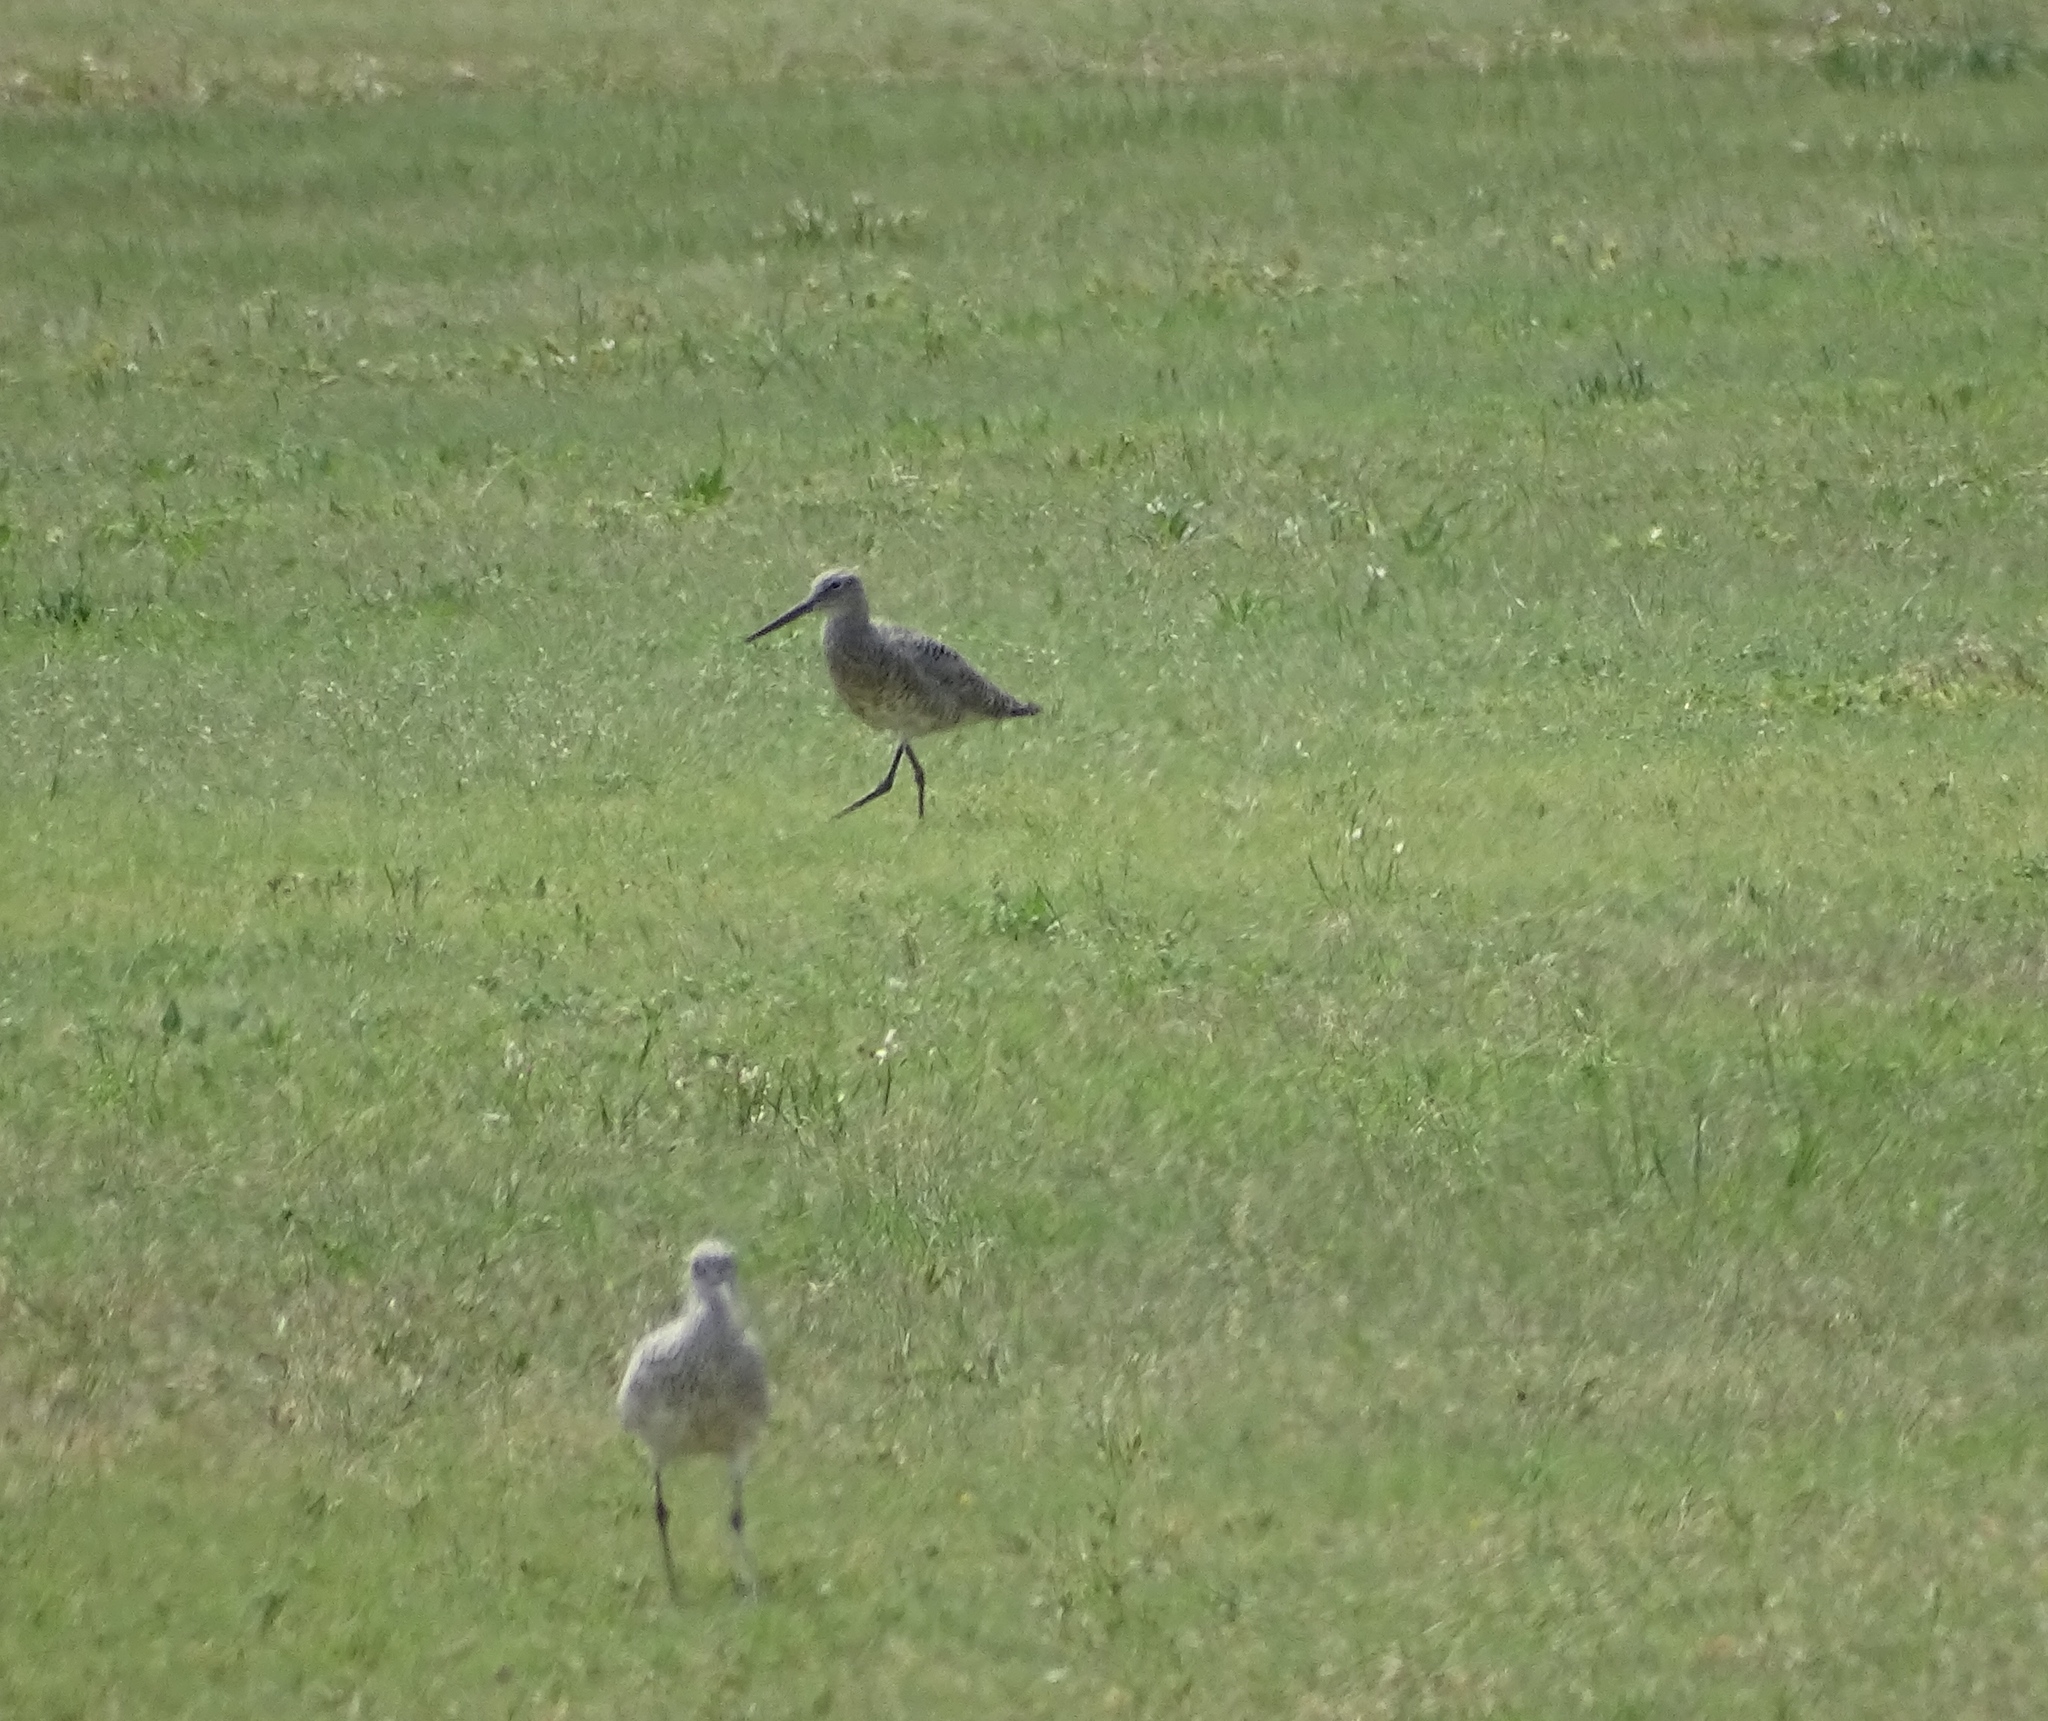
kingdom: Animalia
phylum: Chordata
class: Aves
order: Charadriiformes
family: Scolopacidae
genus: Tringa
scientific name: Tringa semipalmata
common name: Willet
